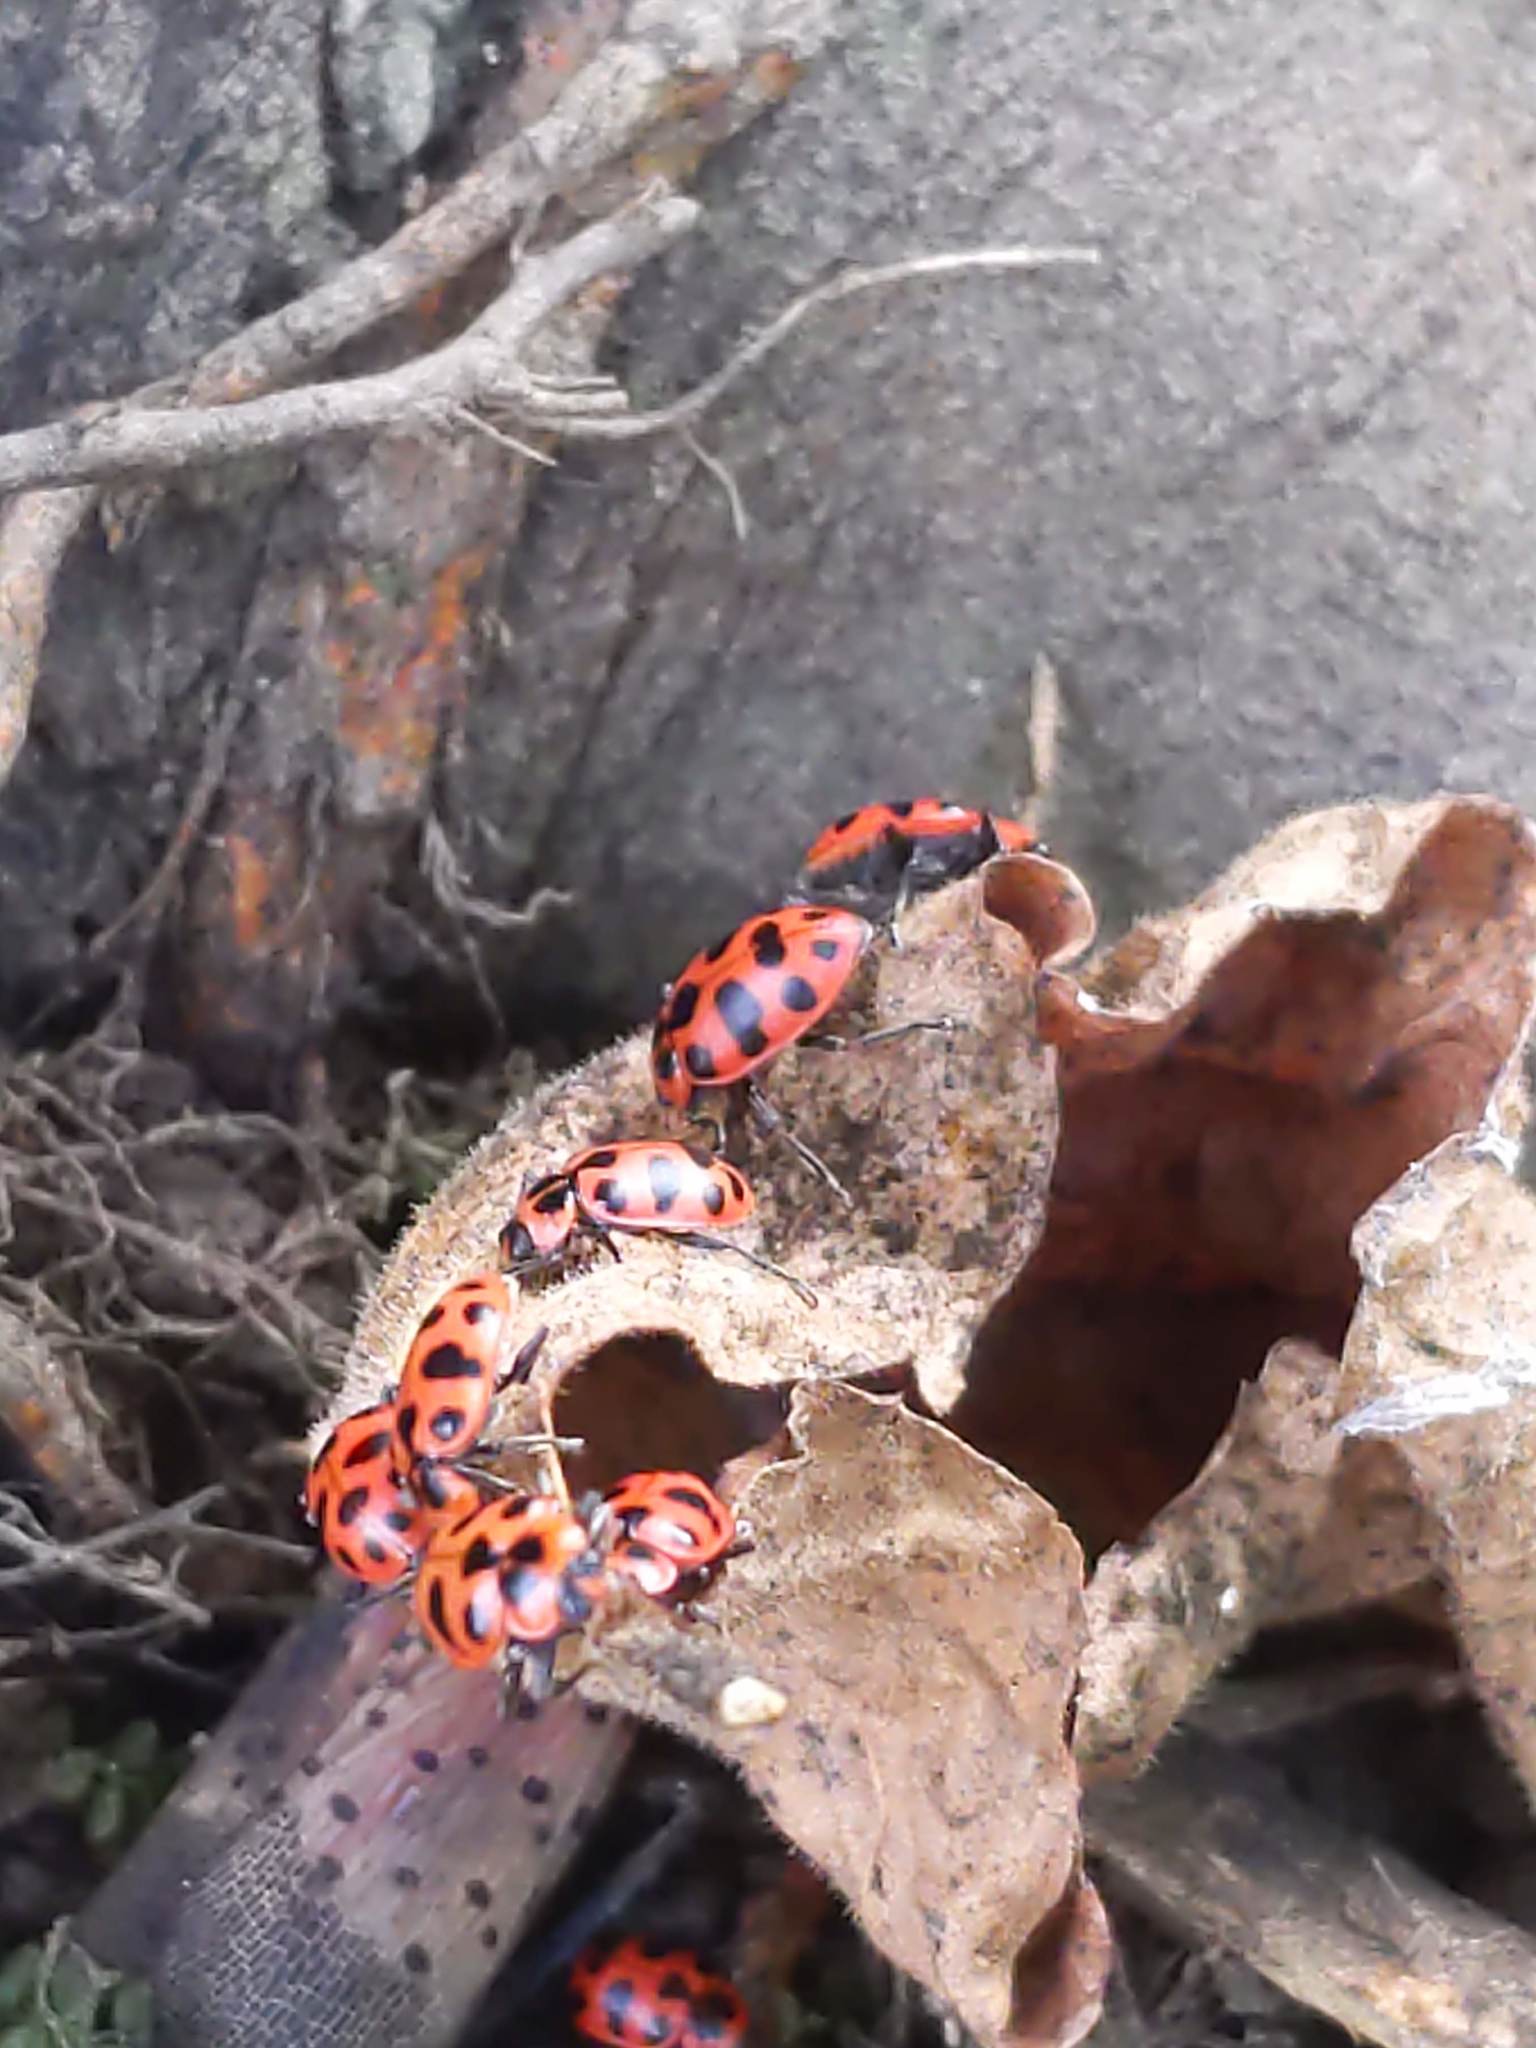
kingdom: Animalia
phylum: Arthropoda
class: Insecta
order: Coleoptera
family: Coccinellidae
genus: Coleomegilla
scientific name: Coleomegilla maculata
